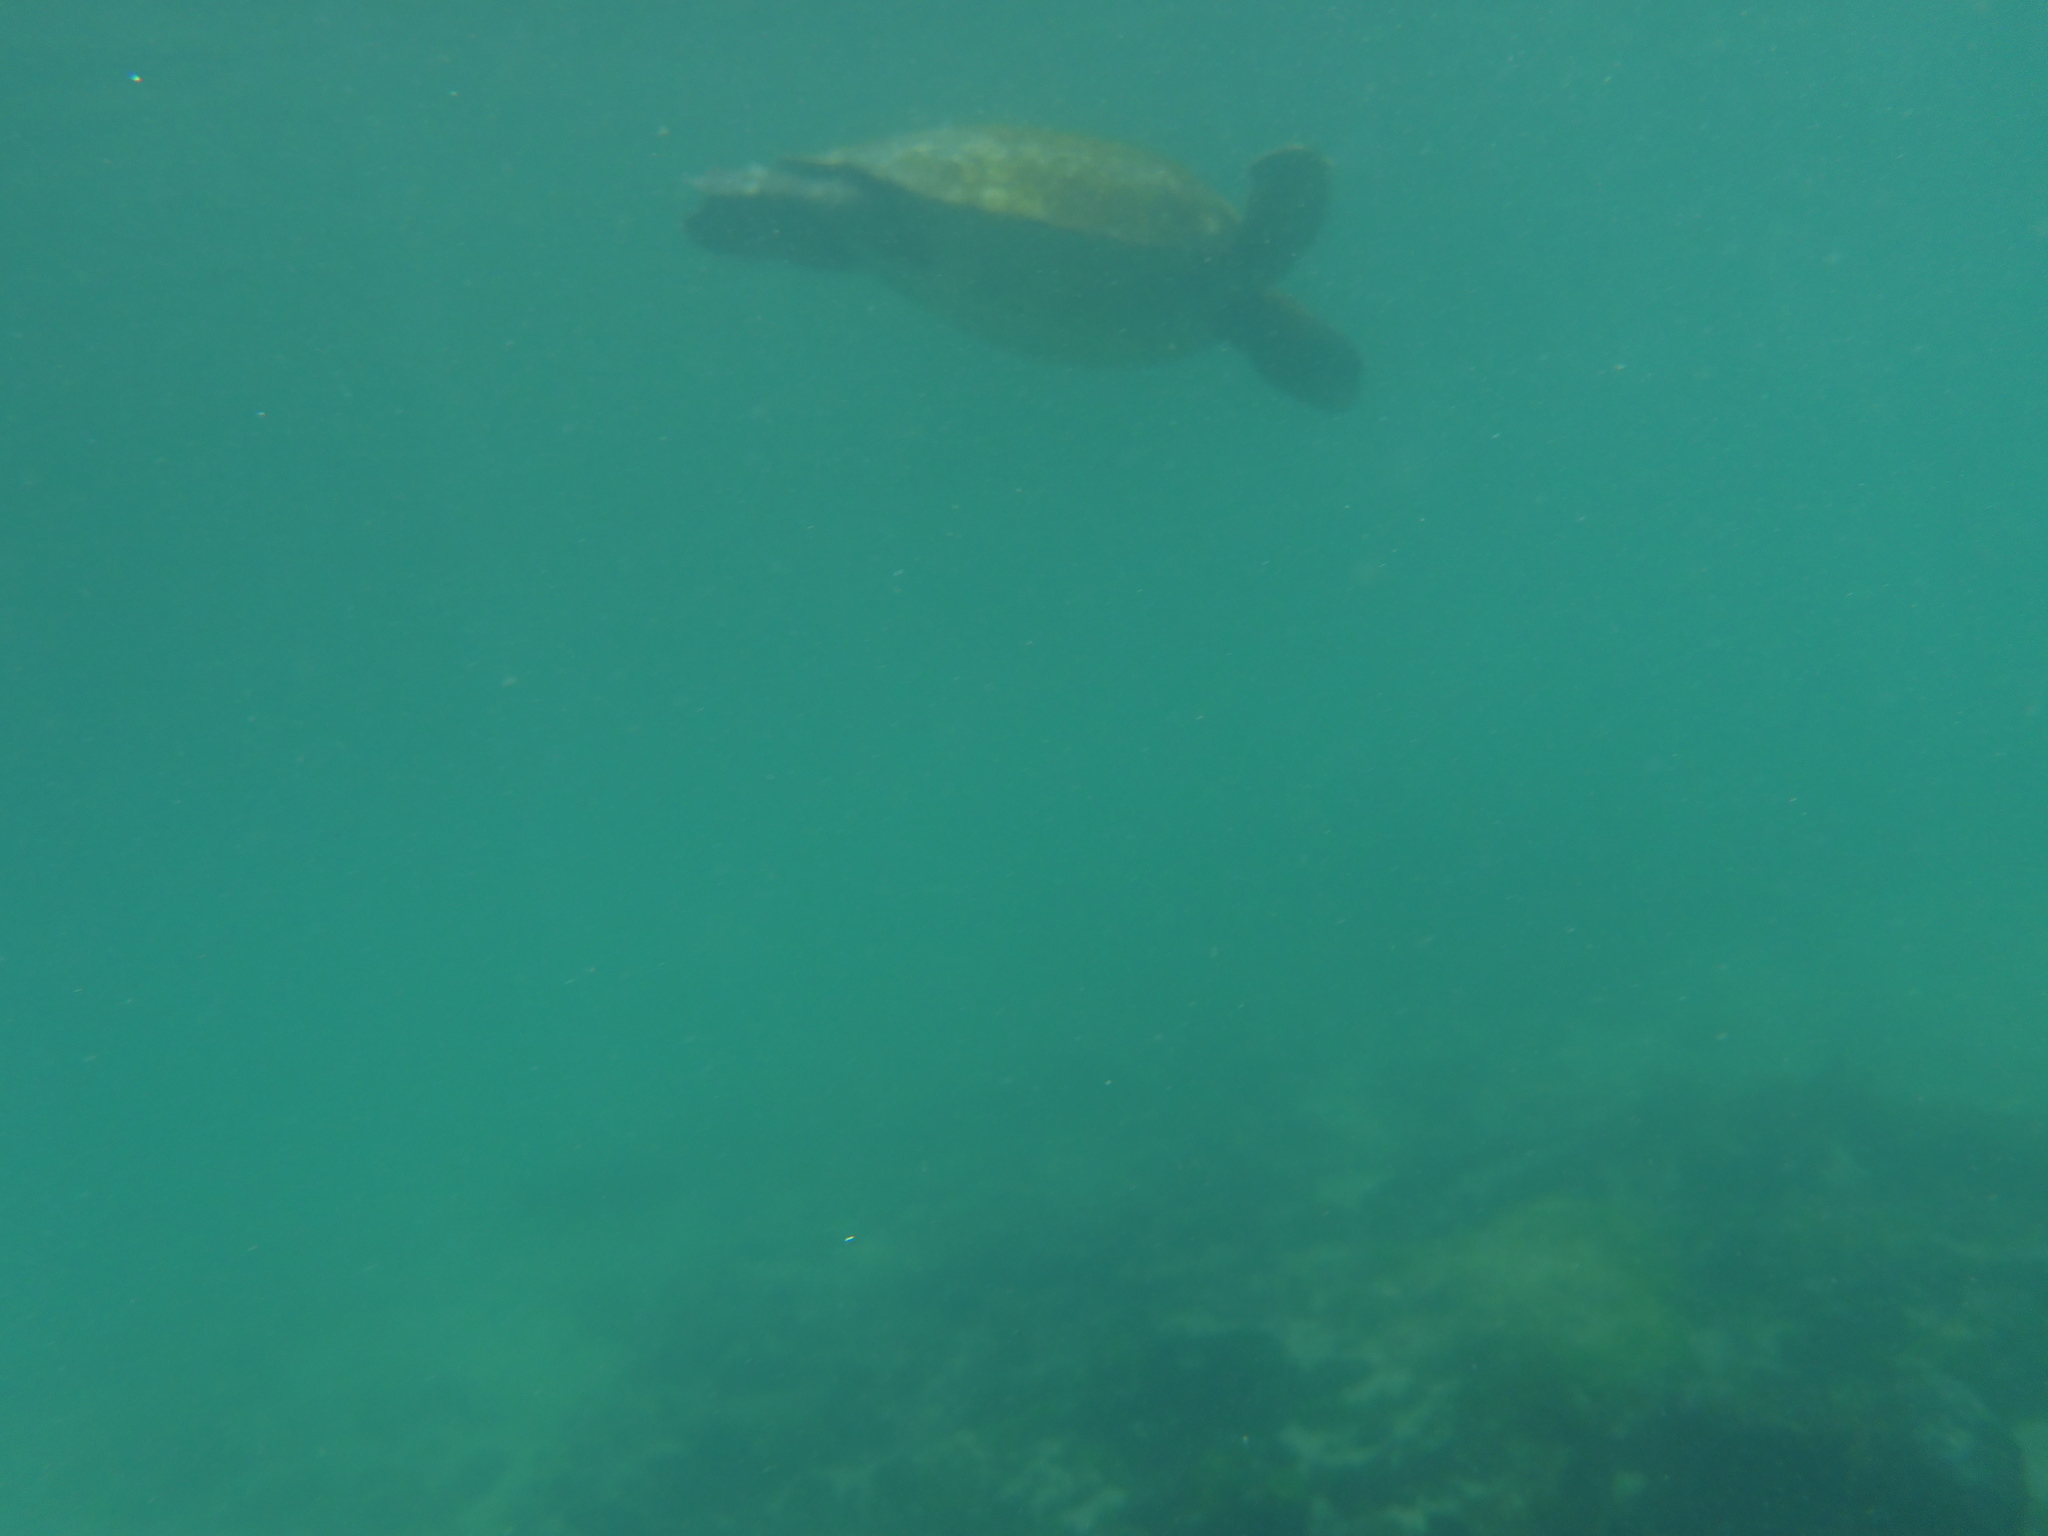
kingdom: Animalia
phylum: Chordata
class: Testudines
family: Cheloniidae
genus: Chelonia
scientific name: Chelonia mydas
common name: Green turtle
